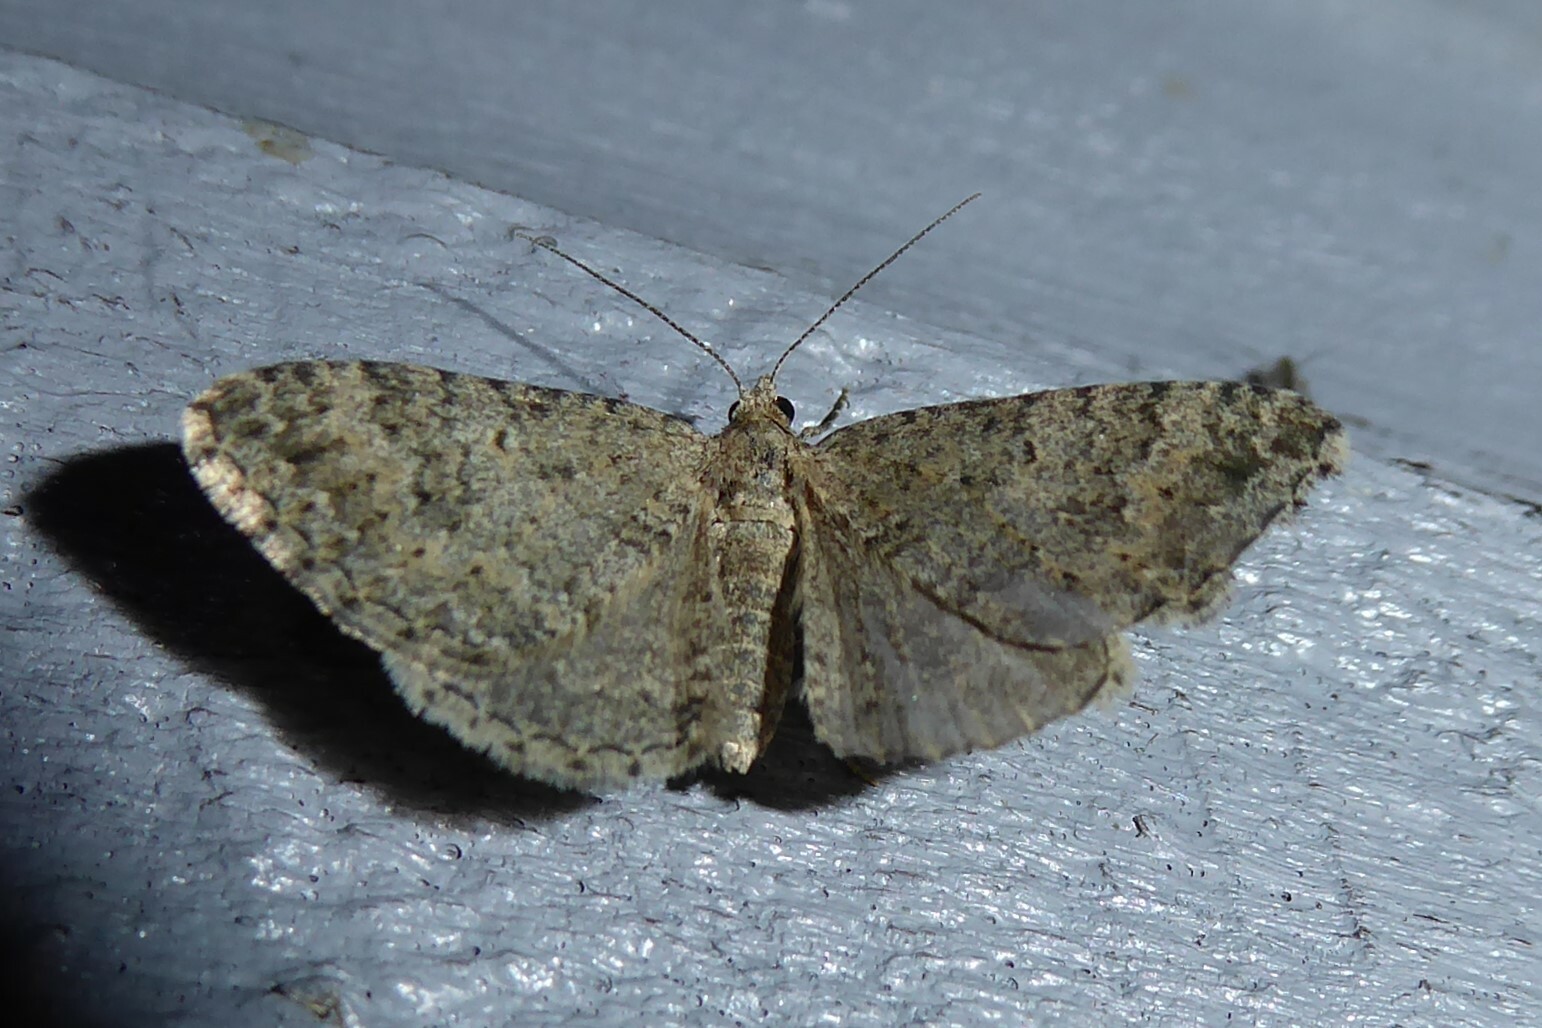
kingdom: Animalia
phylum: Arthropoda
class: Insecta
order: Lepidoptera
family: Geometridae
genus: Helastia
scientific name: Helastia corcularia
